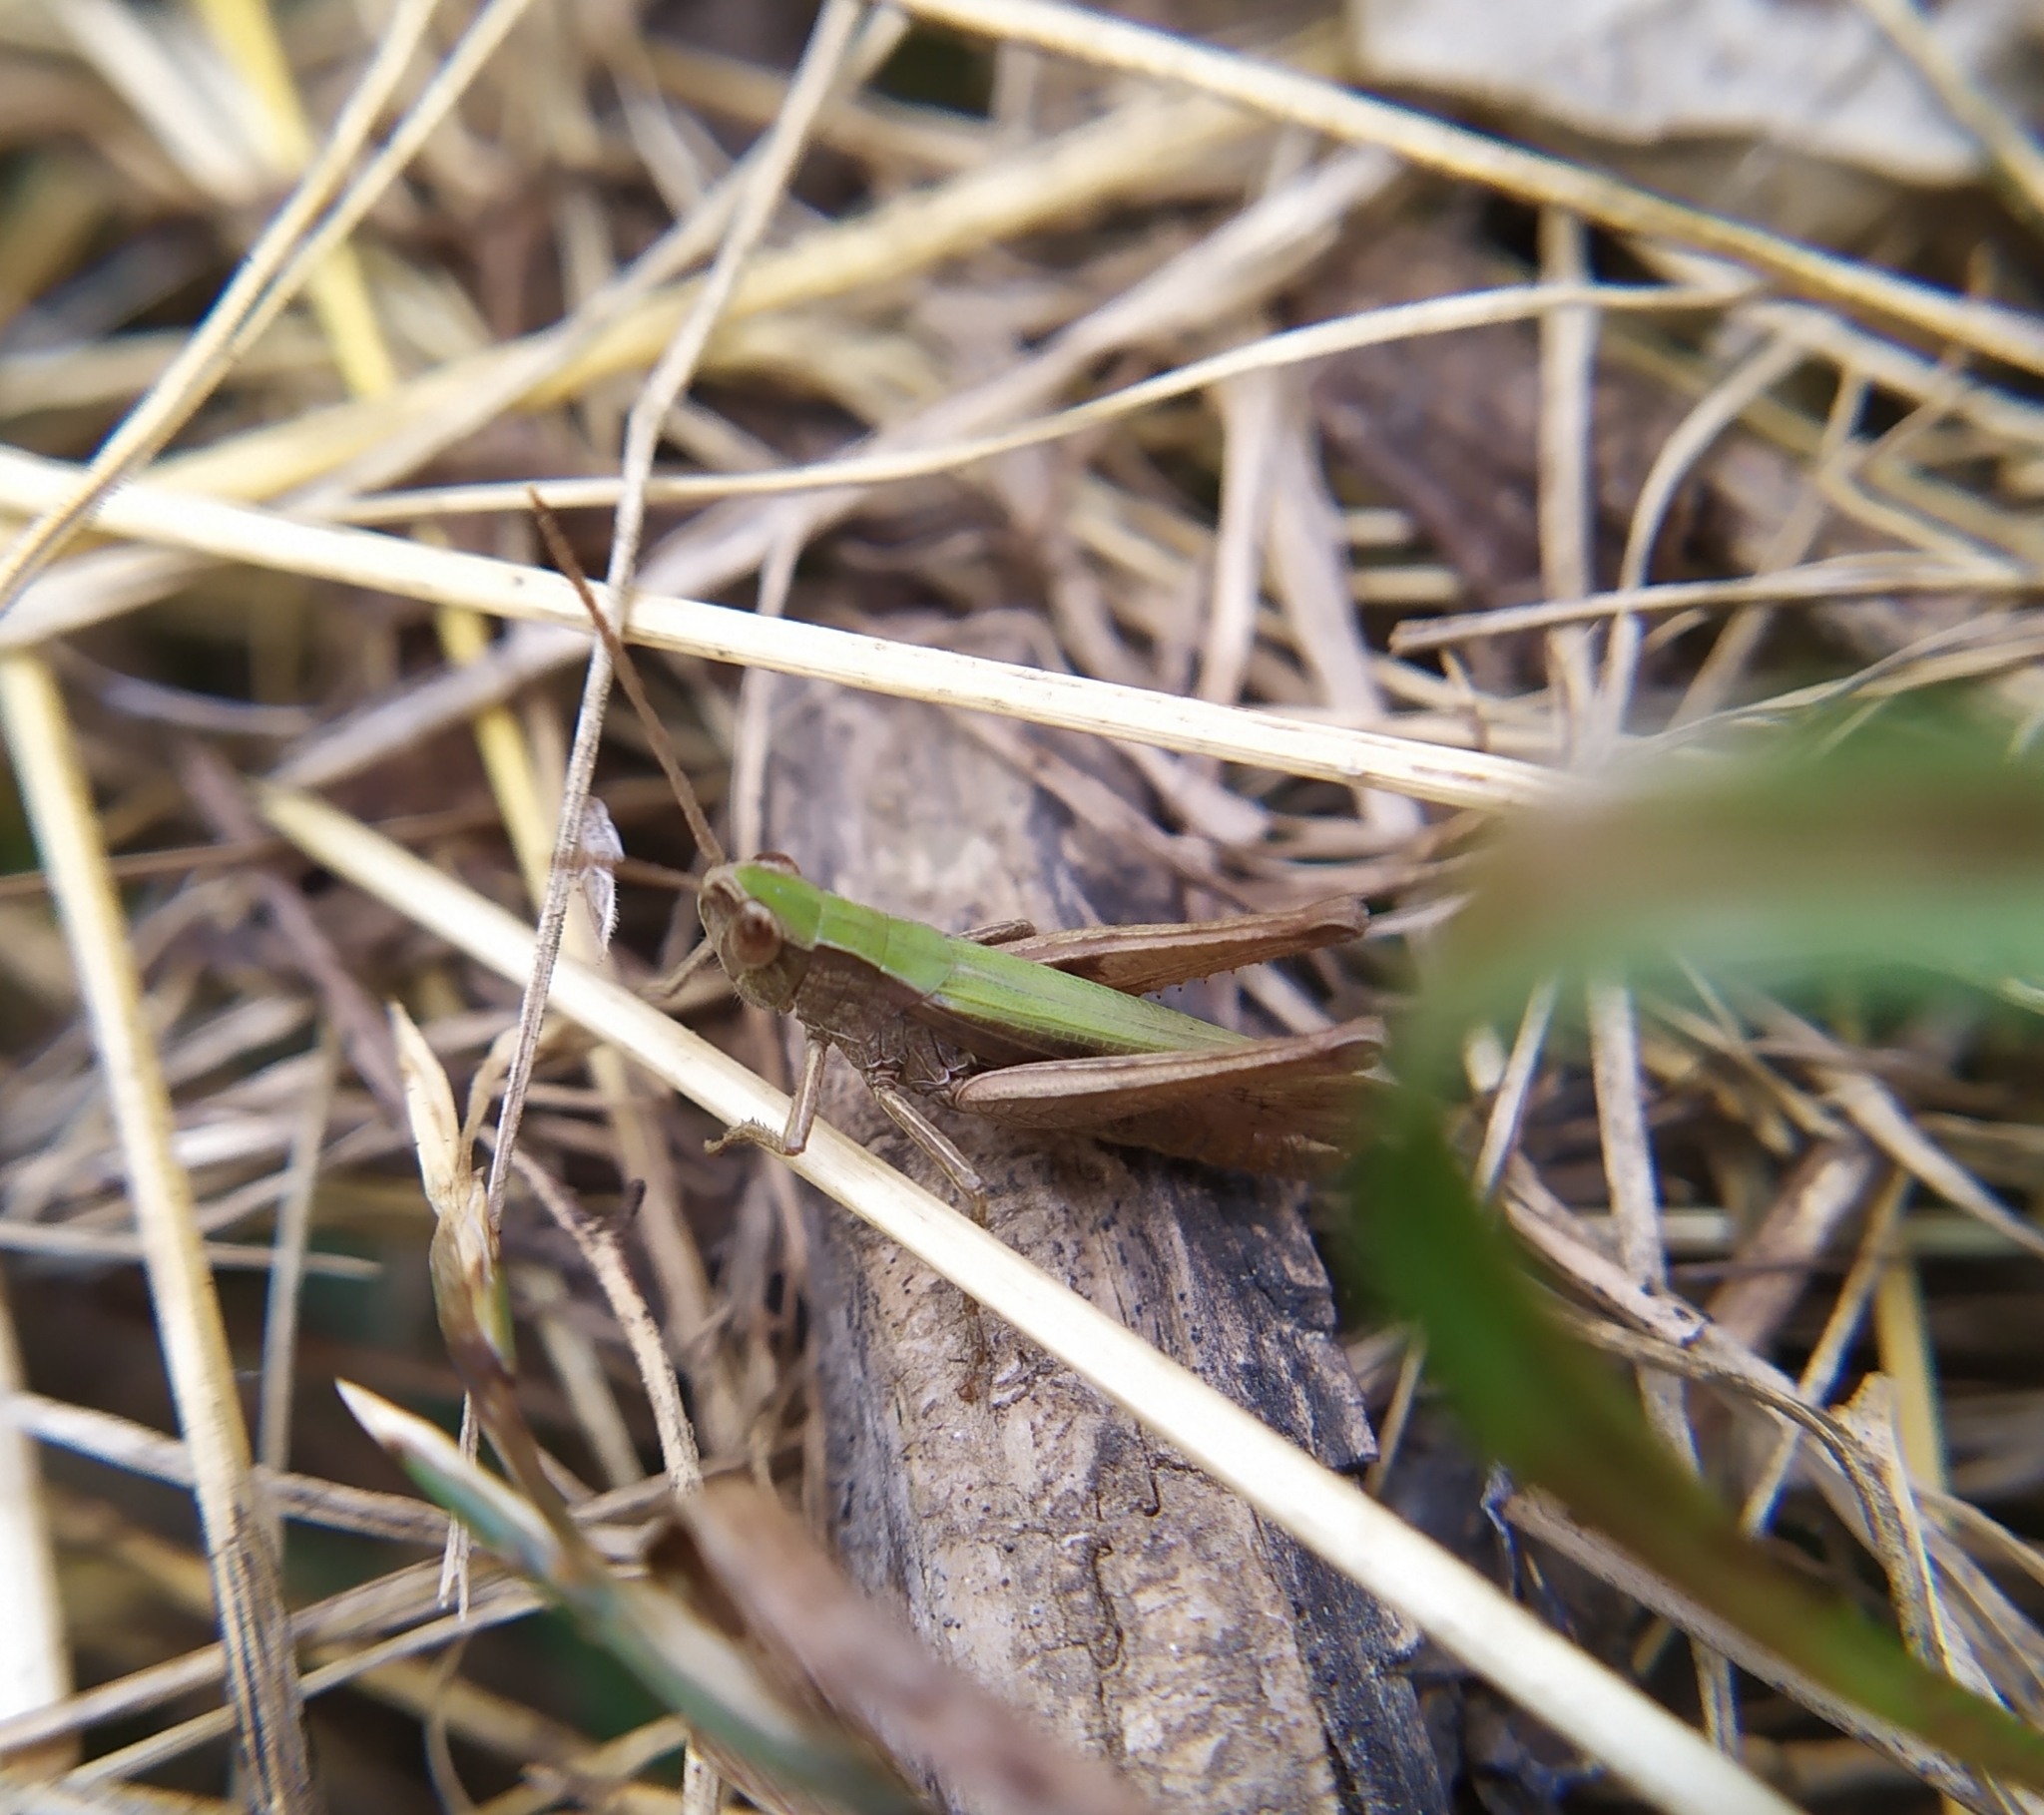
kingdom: Animalia
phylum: Arthropoda
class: Insecta
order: Orthoptera
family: Acrididae
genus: Chorthippus
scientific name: Chorthippus dorsatus
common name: Steppe grasshopper
